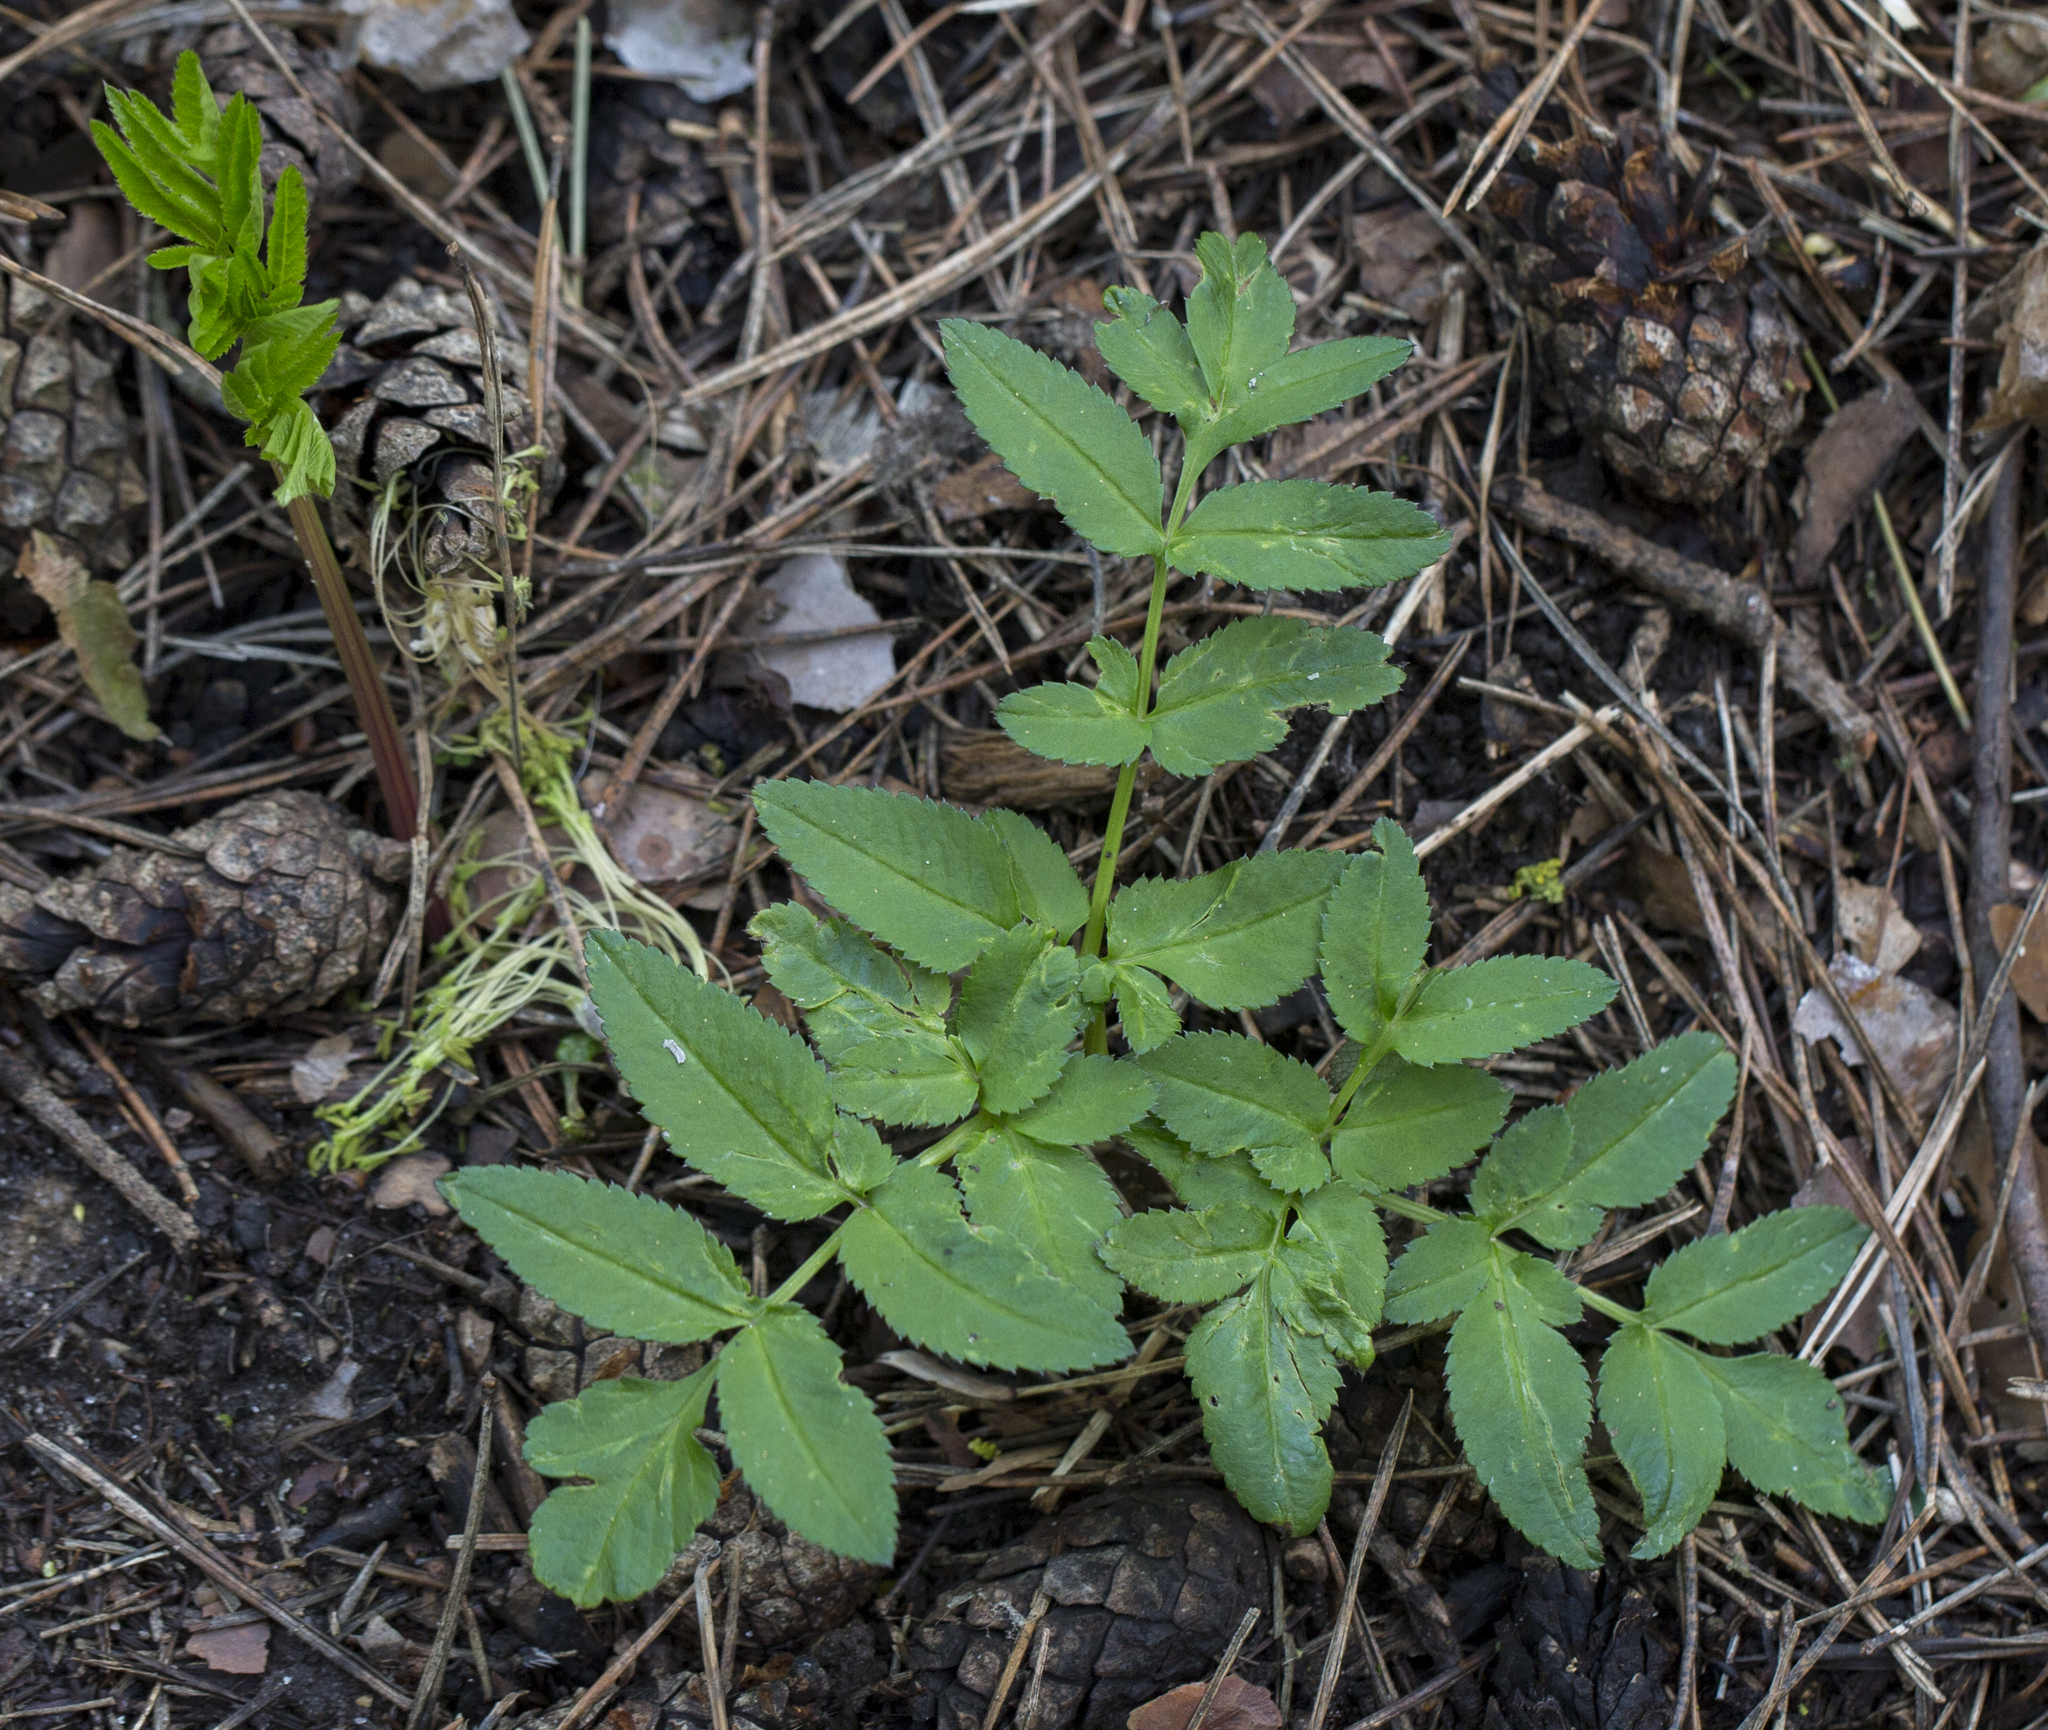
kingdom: Plantae
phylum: Tracheophyta
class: Magnoliopsida
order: Apiales
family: Apiaceae
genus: Angelica
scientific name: Angelica sylvestris
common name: Wild angelica
